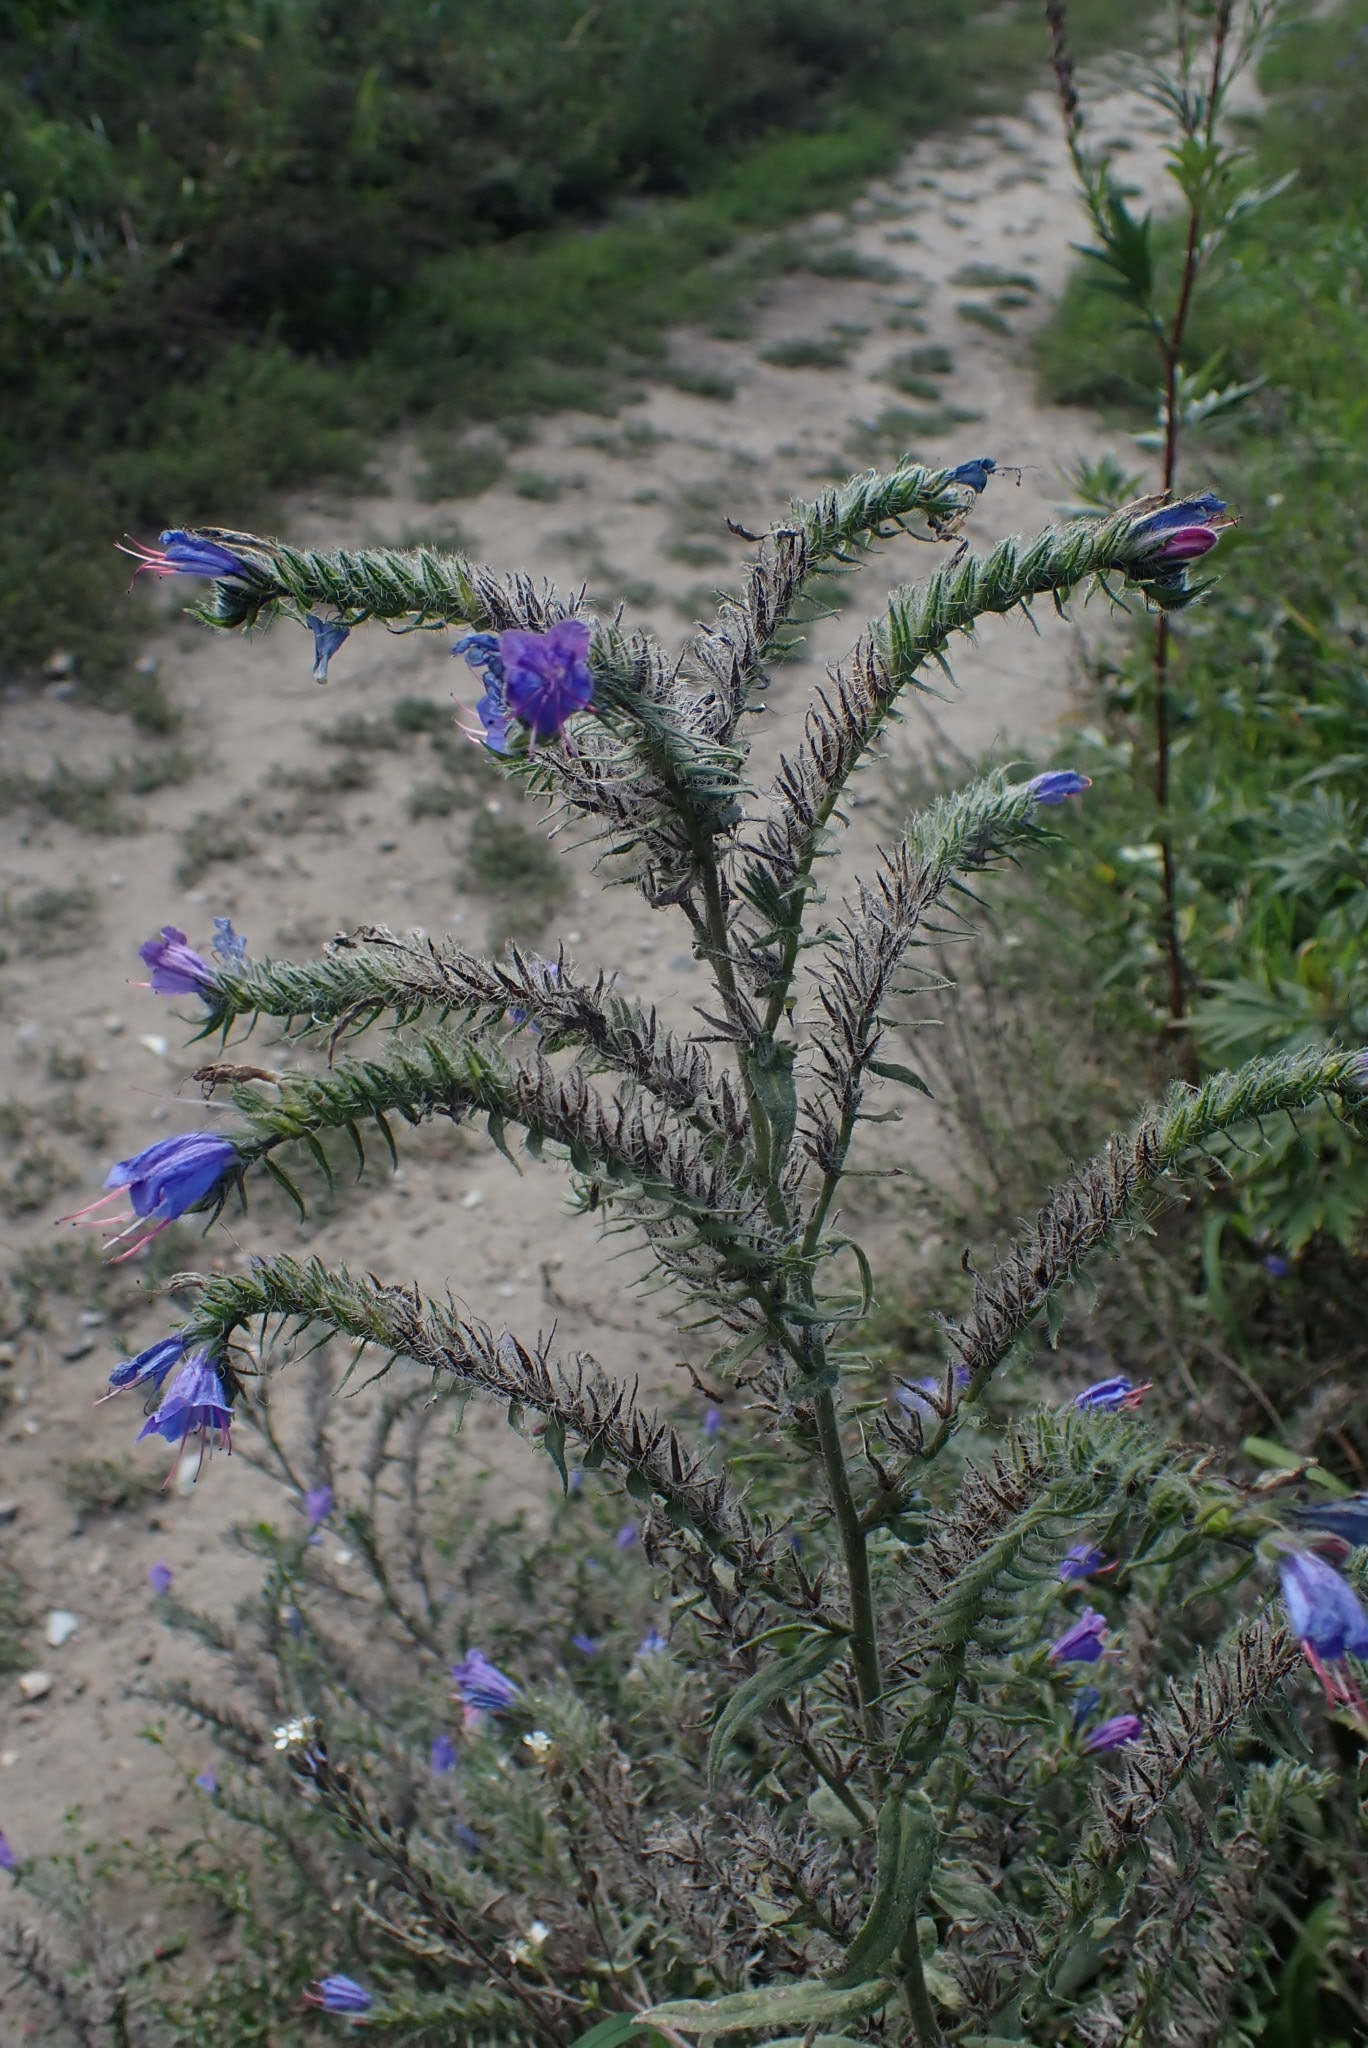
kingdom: Plantae
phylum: Tracheophyta
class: Magnoliopsida
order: Boraginales
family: Boraginaceae
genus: Echium
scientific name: Echium vulgare
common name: Common viper's bugloss
